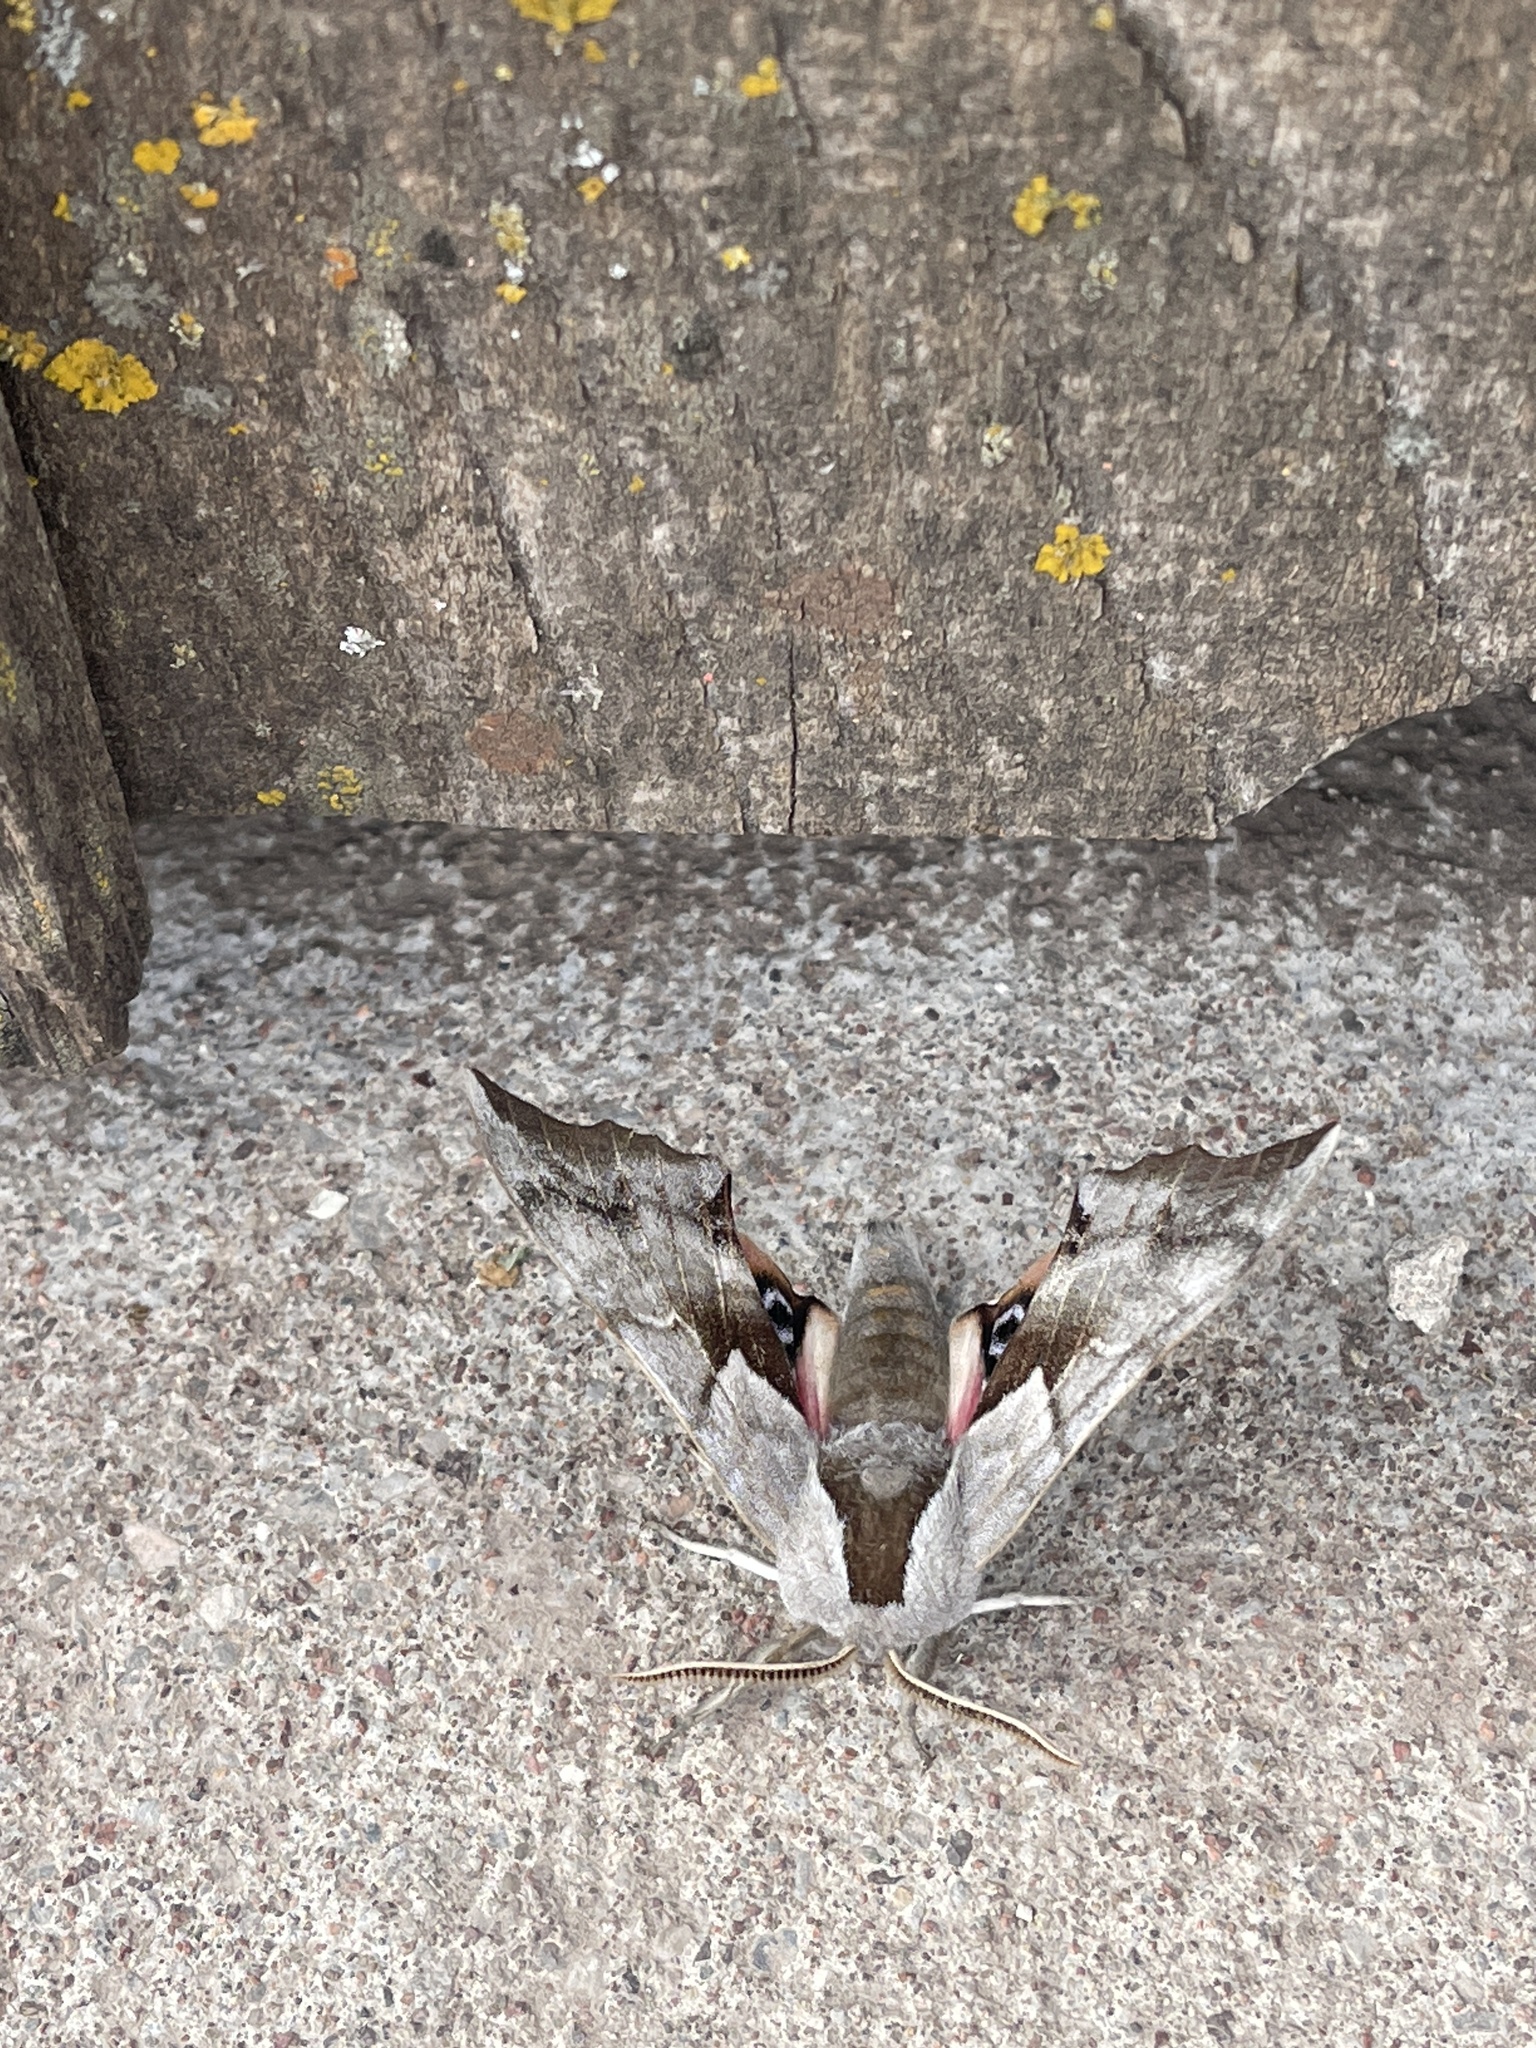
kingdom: Animalia
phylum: Arthropoda
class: Insecta
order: Lepidoptera
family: Sphingidae
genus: Smerinthus
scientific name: Smerinthus cerisyi
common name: Cerisy's sphinx moth
